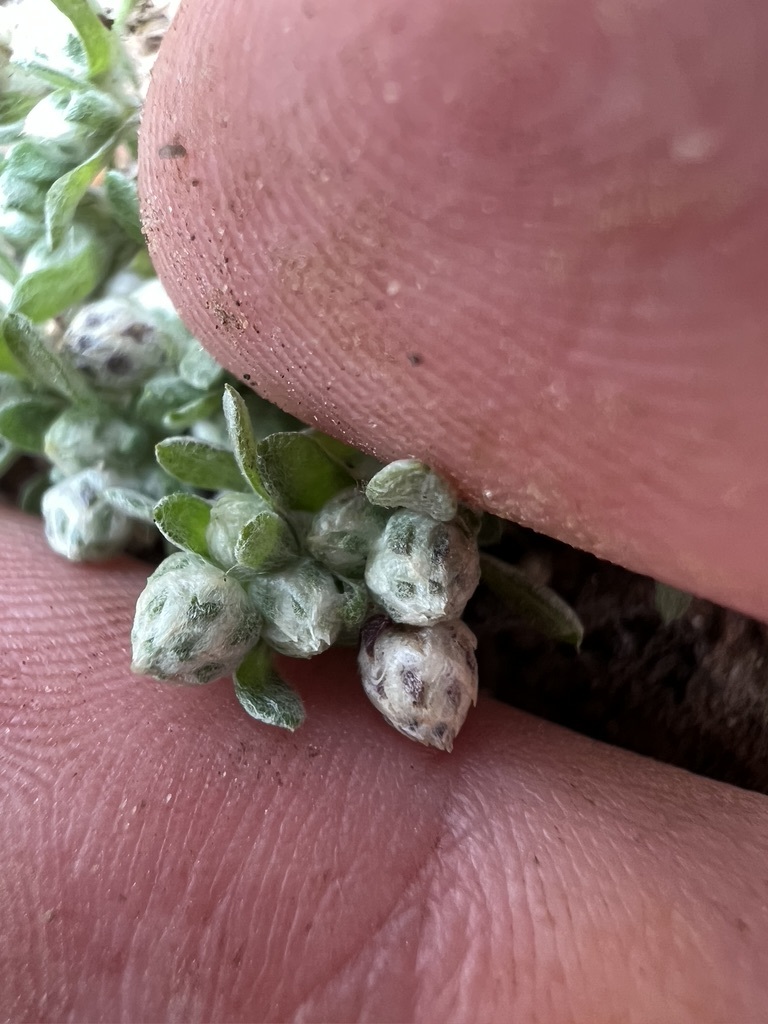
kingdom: Plantae
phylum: Tracheophyta
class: Magnoliopsida
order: Asterales
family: Asteraceae
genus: Stylocline
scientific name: Stylocline gnaphaloides
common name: Everlasting nest-straw
